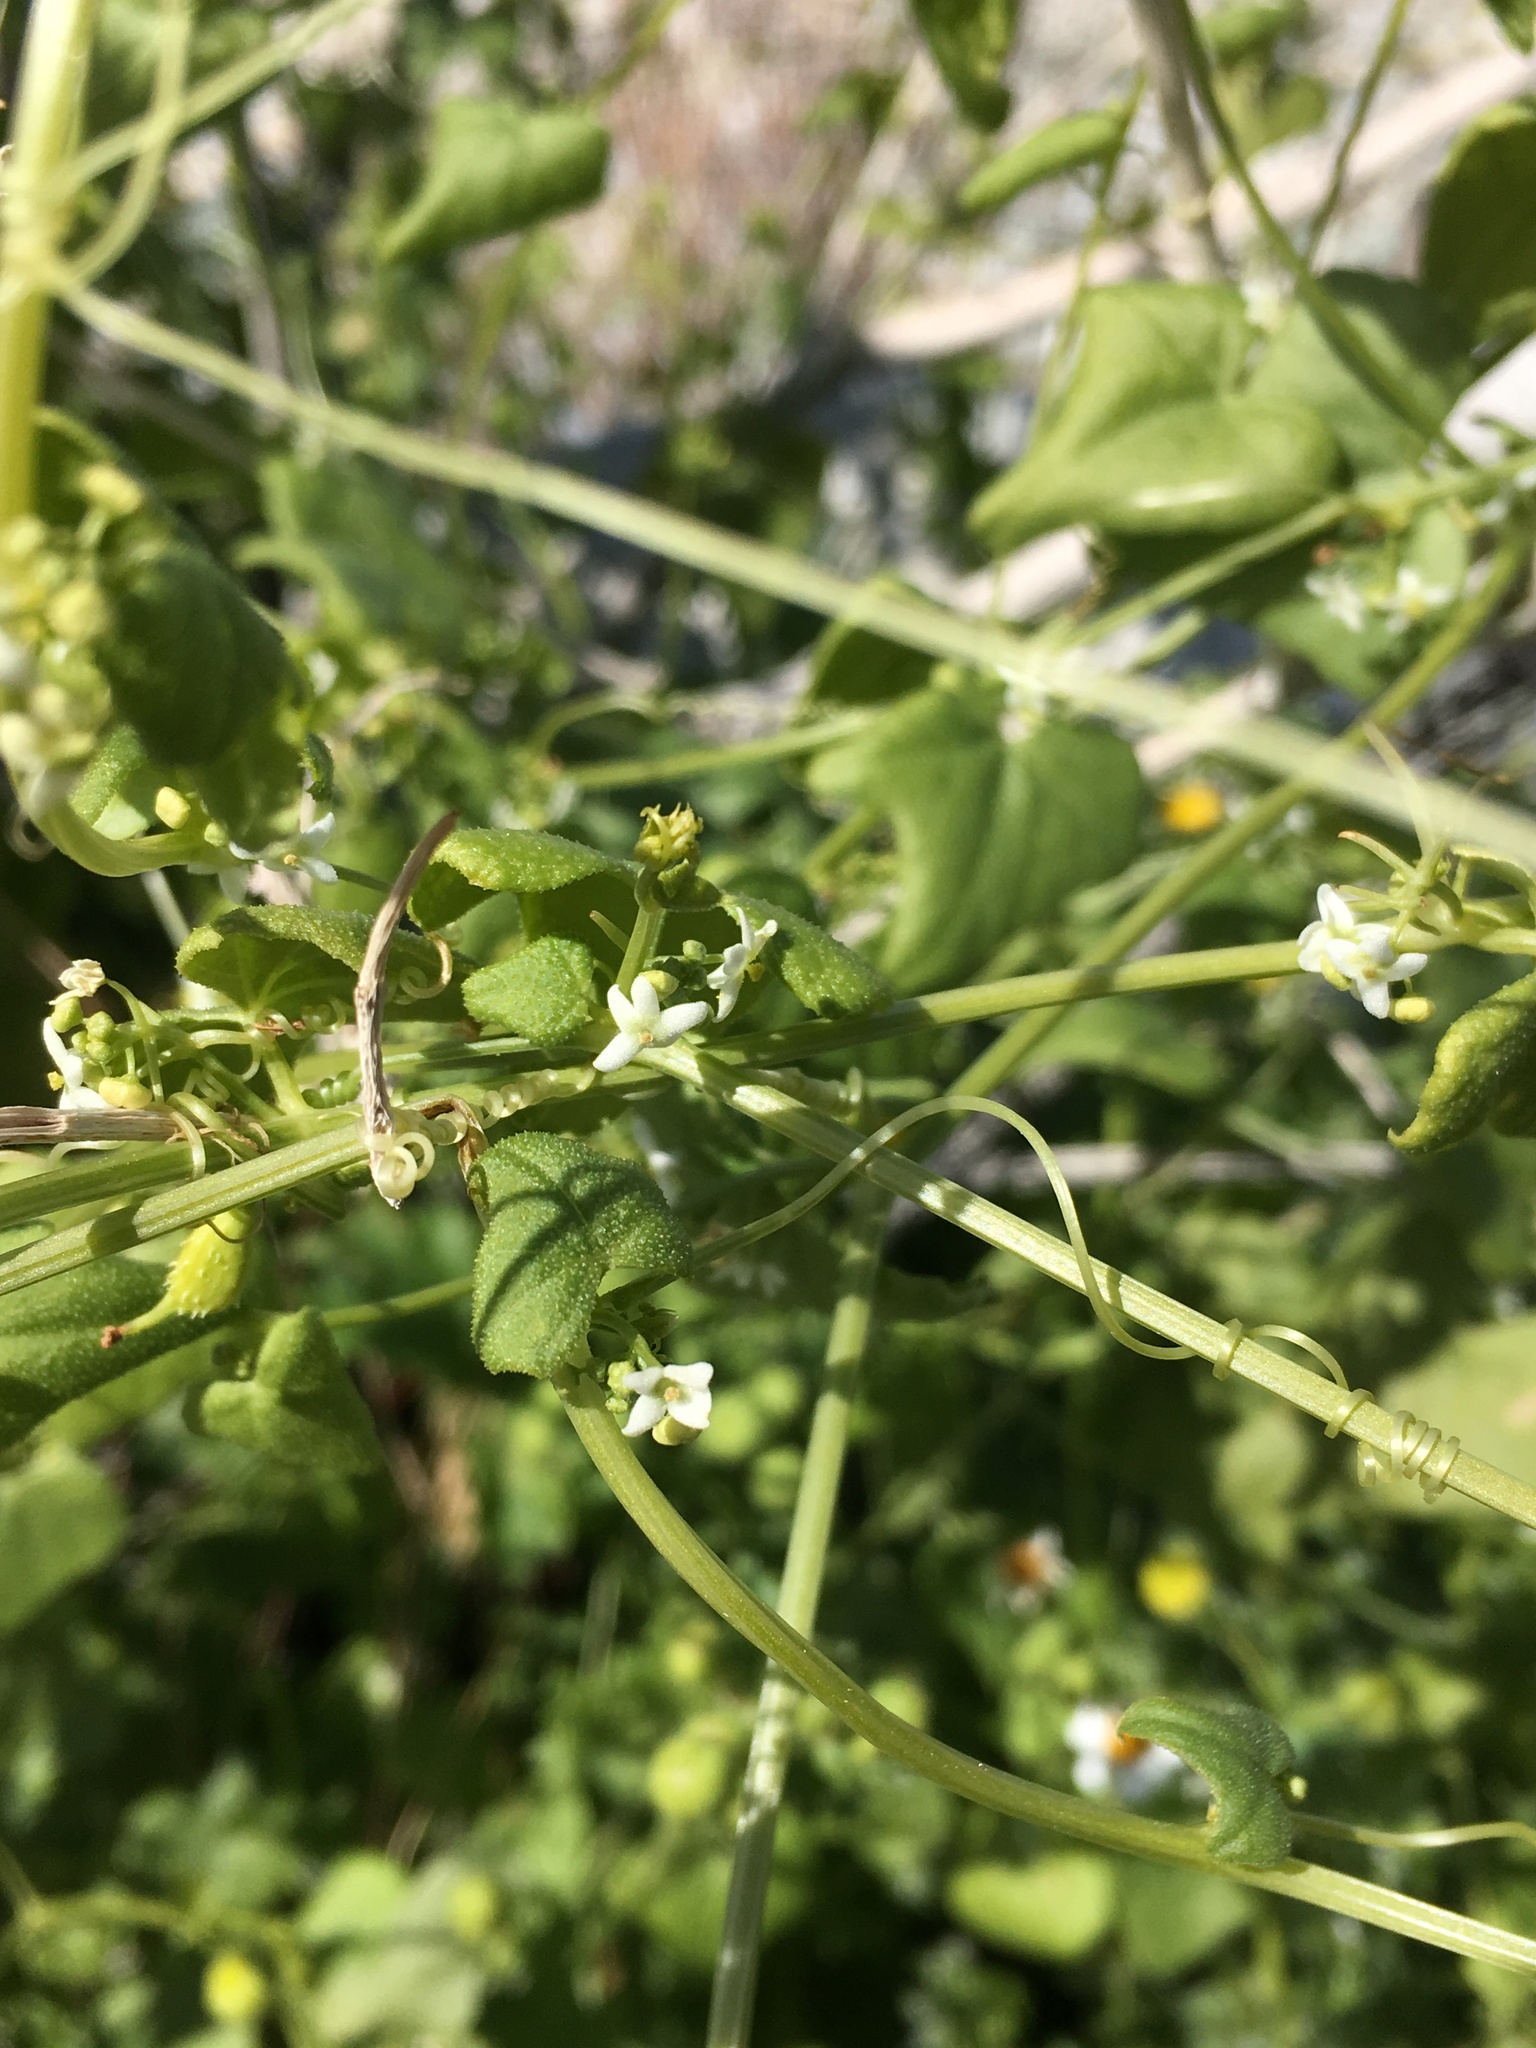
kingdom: Plantae
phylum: Tracheophyta
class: Magnoliopsida
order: Cucurbitales
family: Cucurbitaceae
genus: Echinopepon
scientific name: Echinopepon bigelovii
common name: Desert starvine
